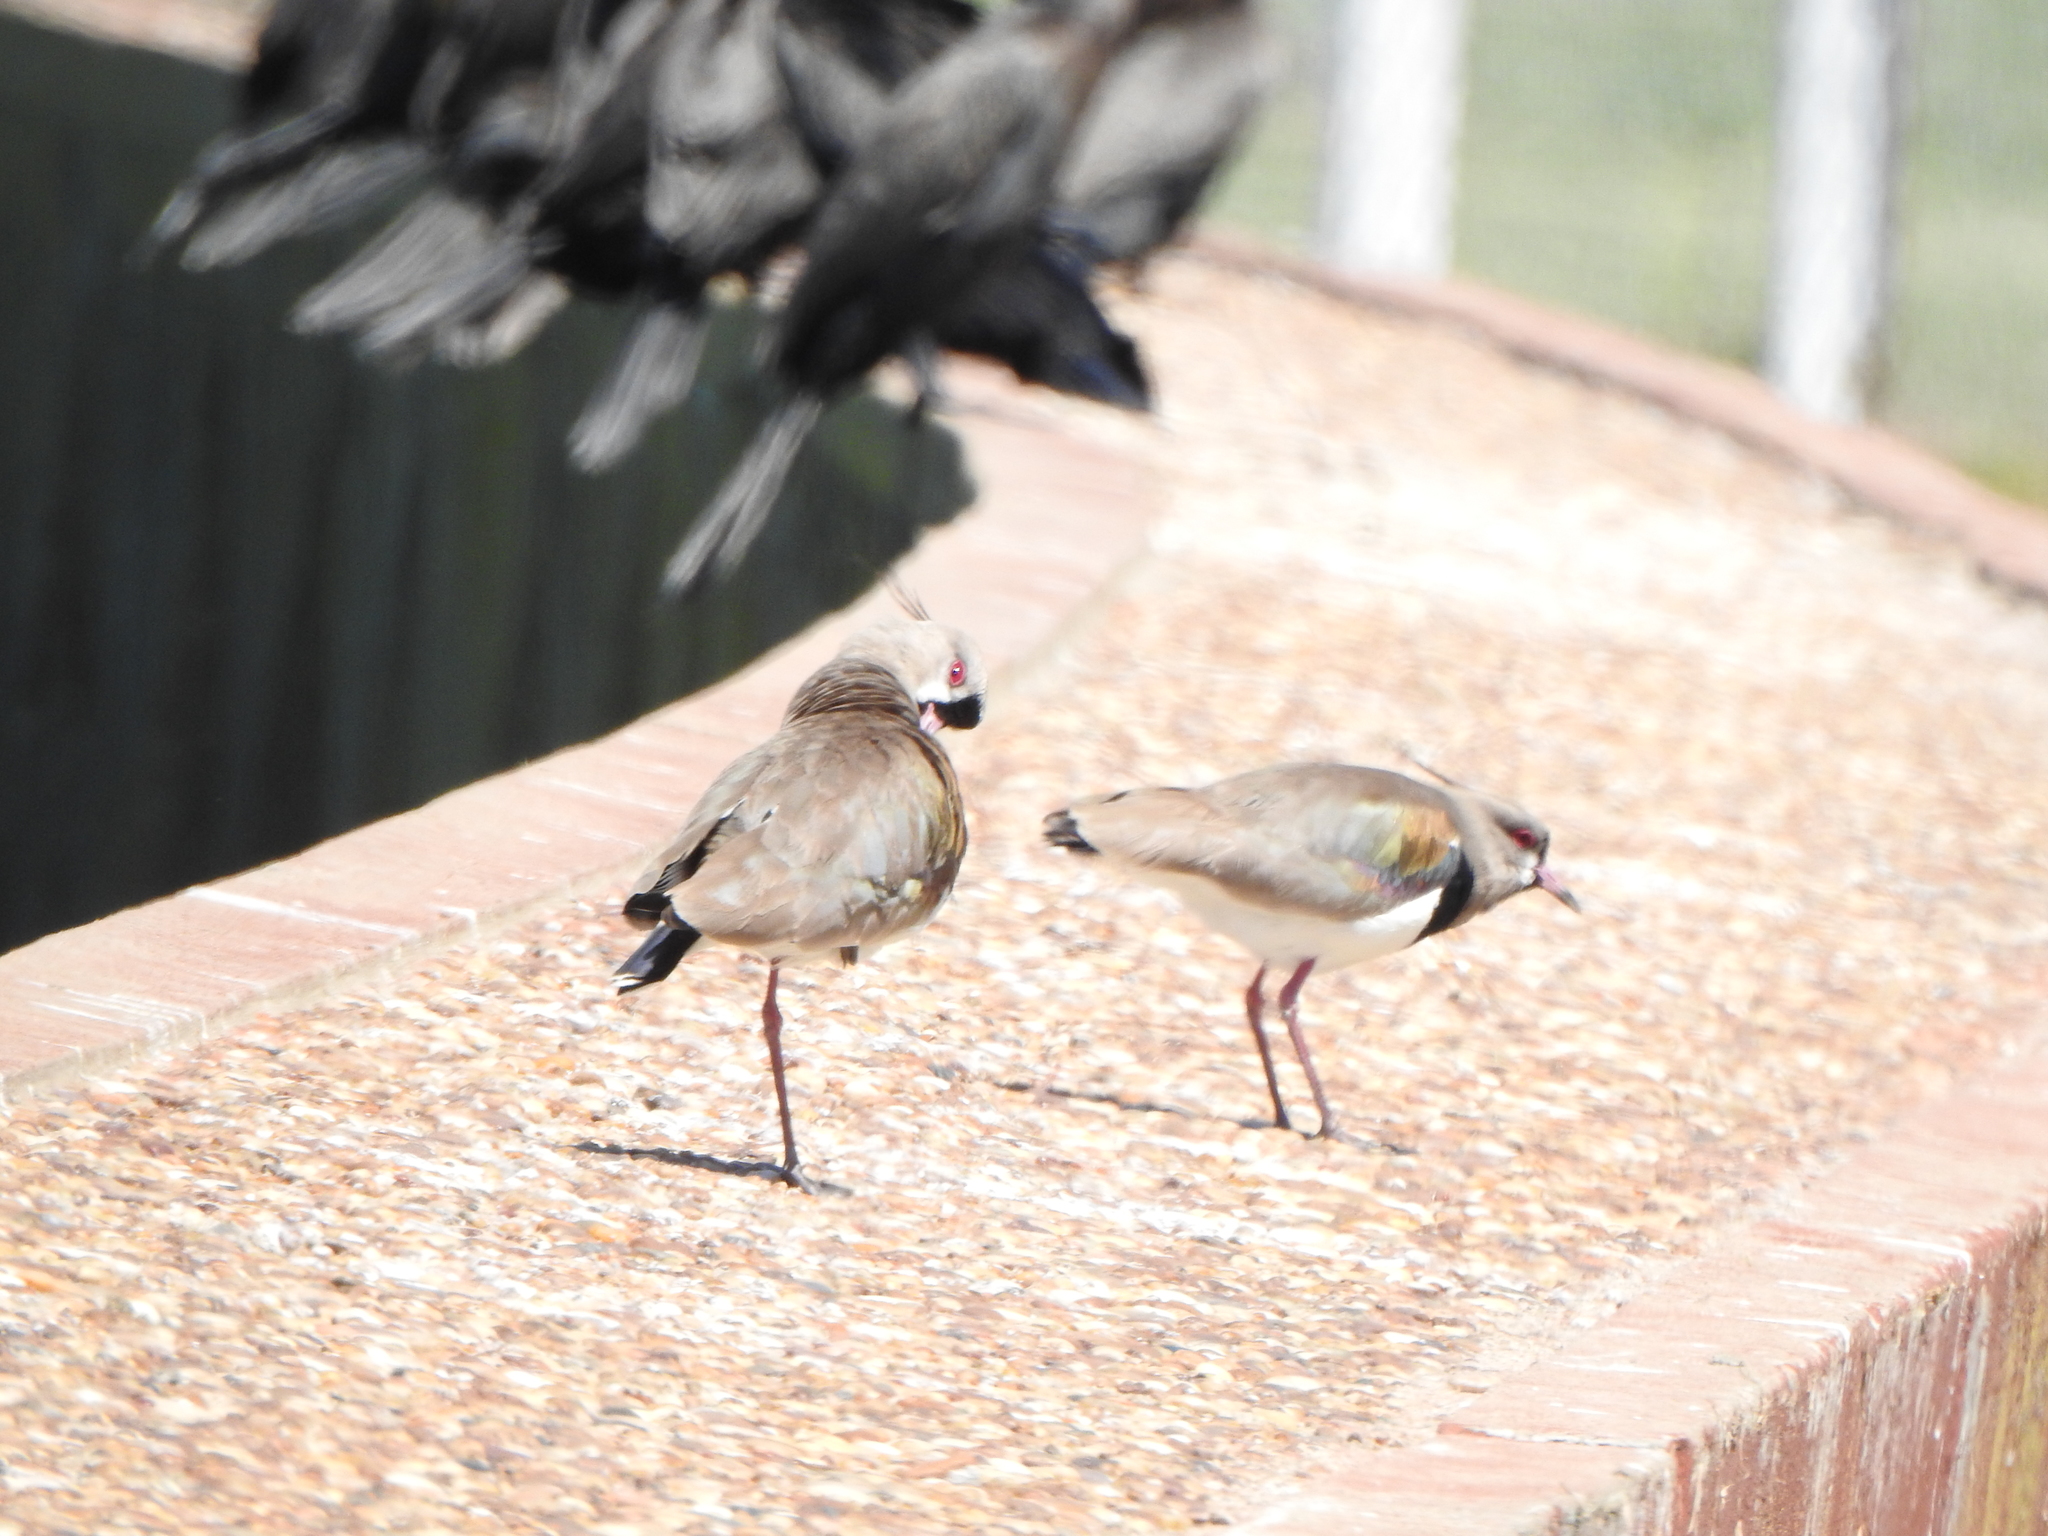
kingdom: Animalia
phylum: Chordata
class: Aves
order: Charadriiformes
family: Charadriidae
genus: Vanellus
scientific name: Vanellus chilensis
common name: Southern lapwing
